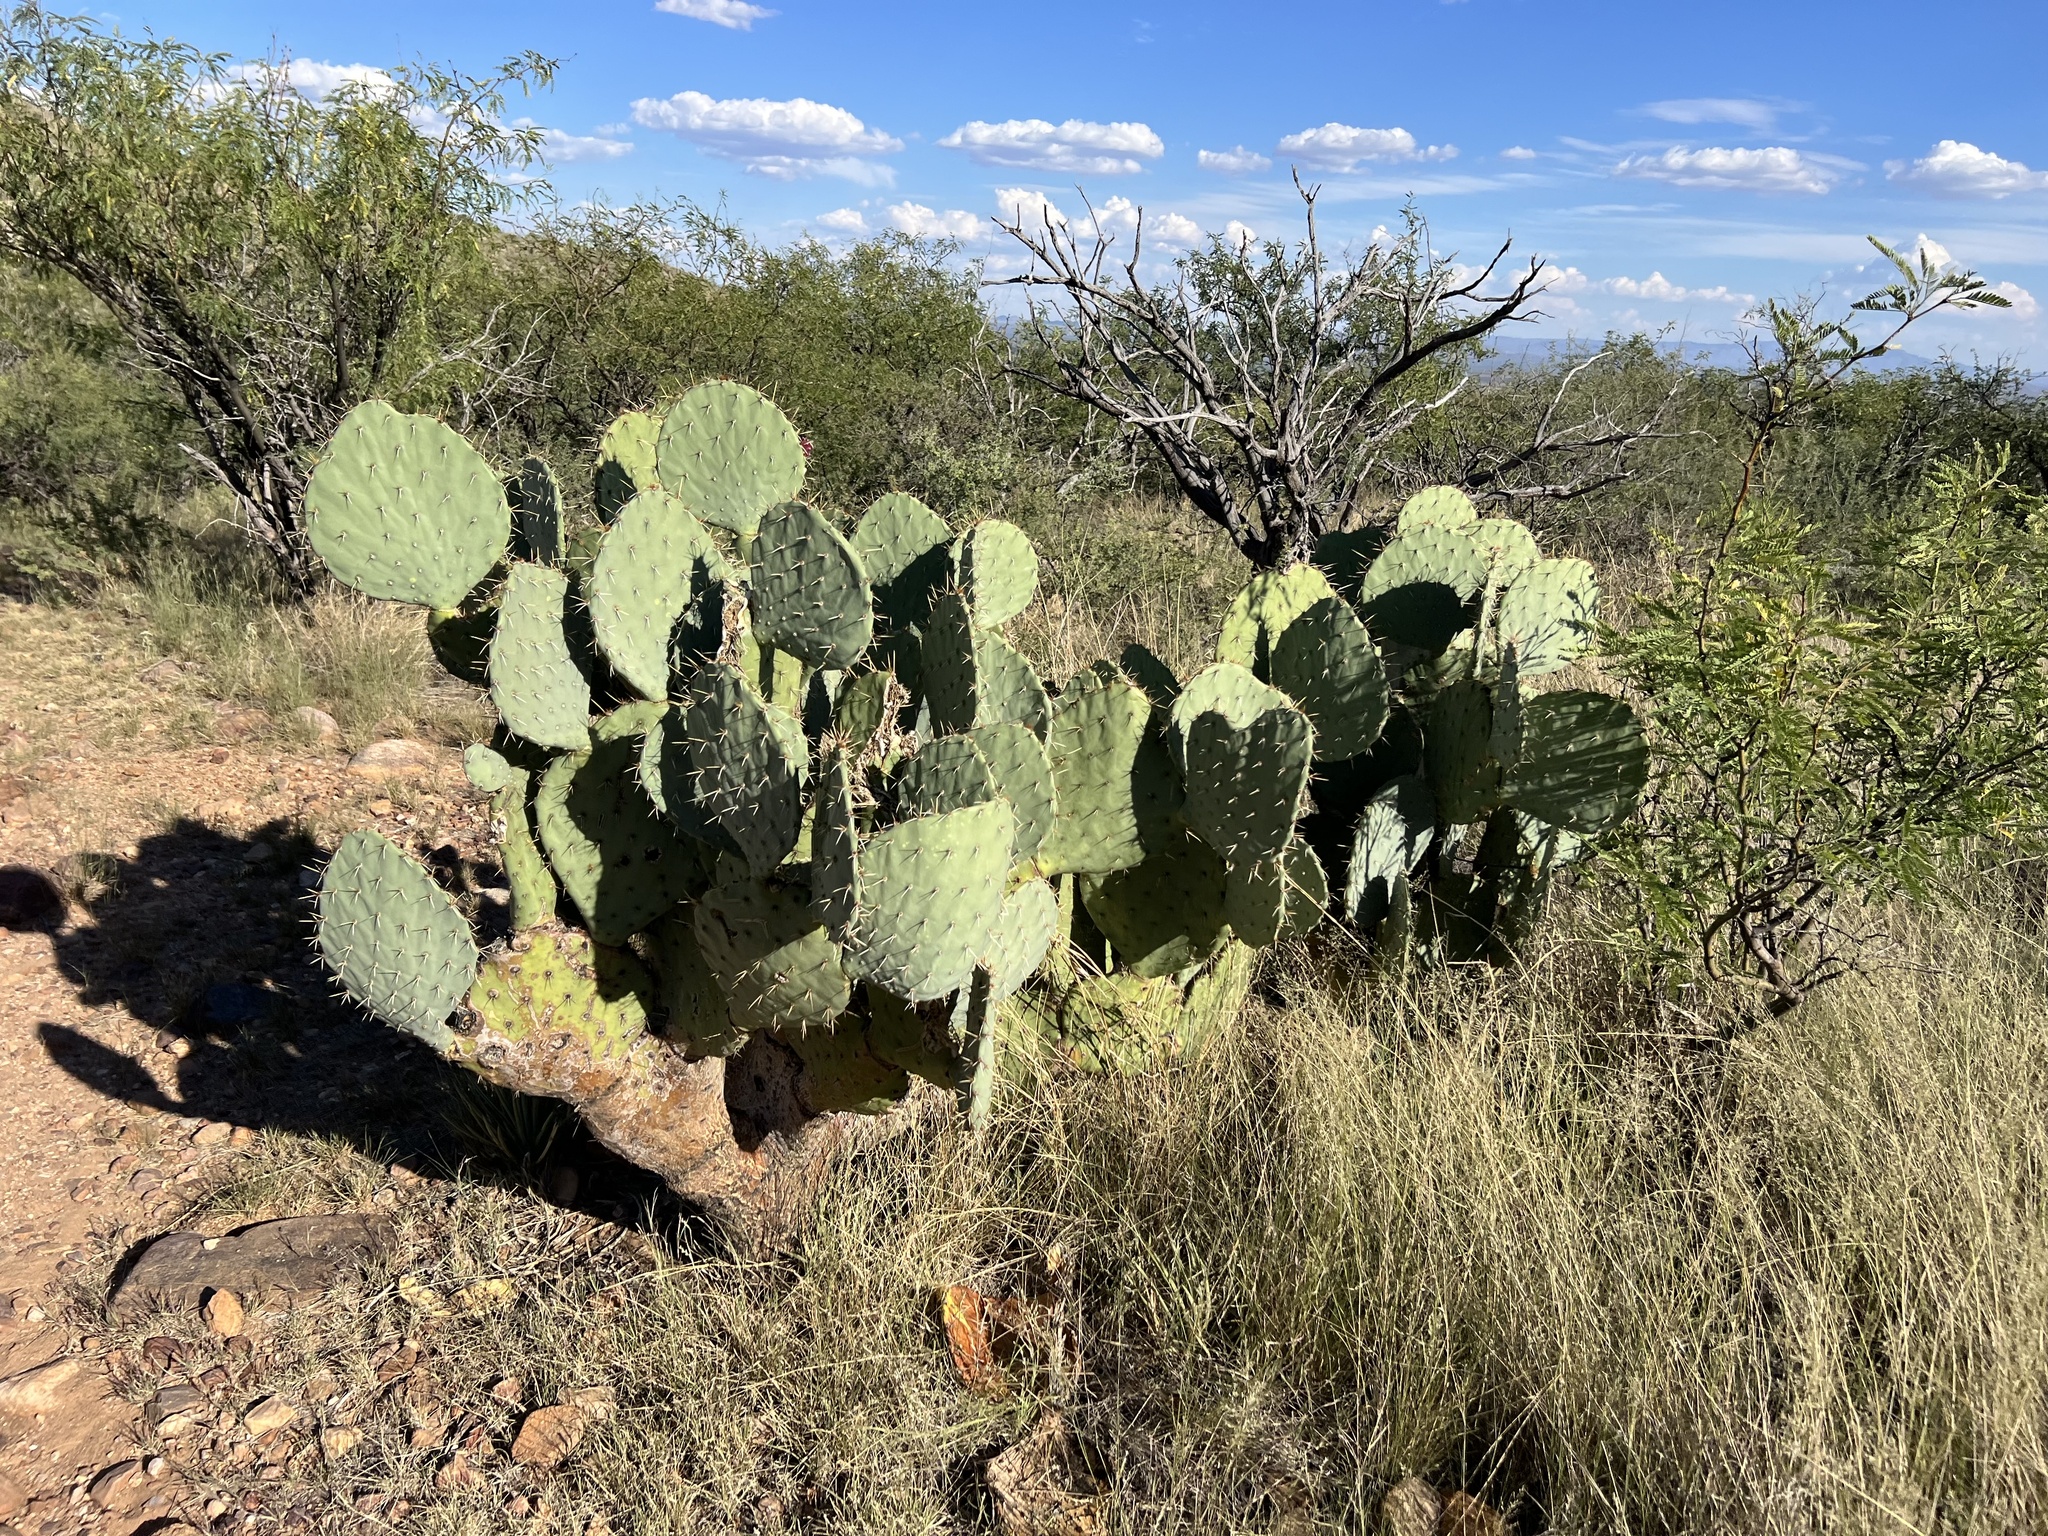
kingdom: Plantae
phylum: Tracheophyta
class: Magnoliopsida
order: Caryophyllales
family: Cactaceae
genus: Opuntia
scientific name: Opuntia engelmannii
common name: Cactus-apple
